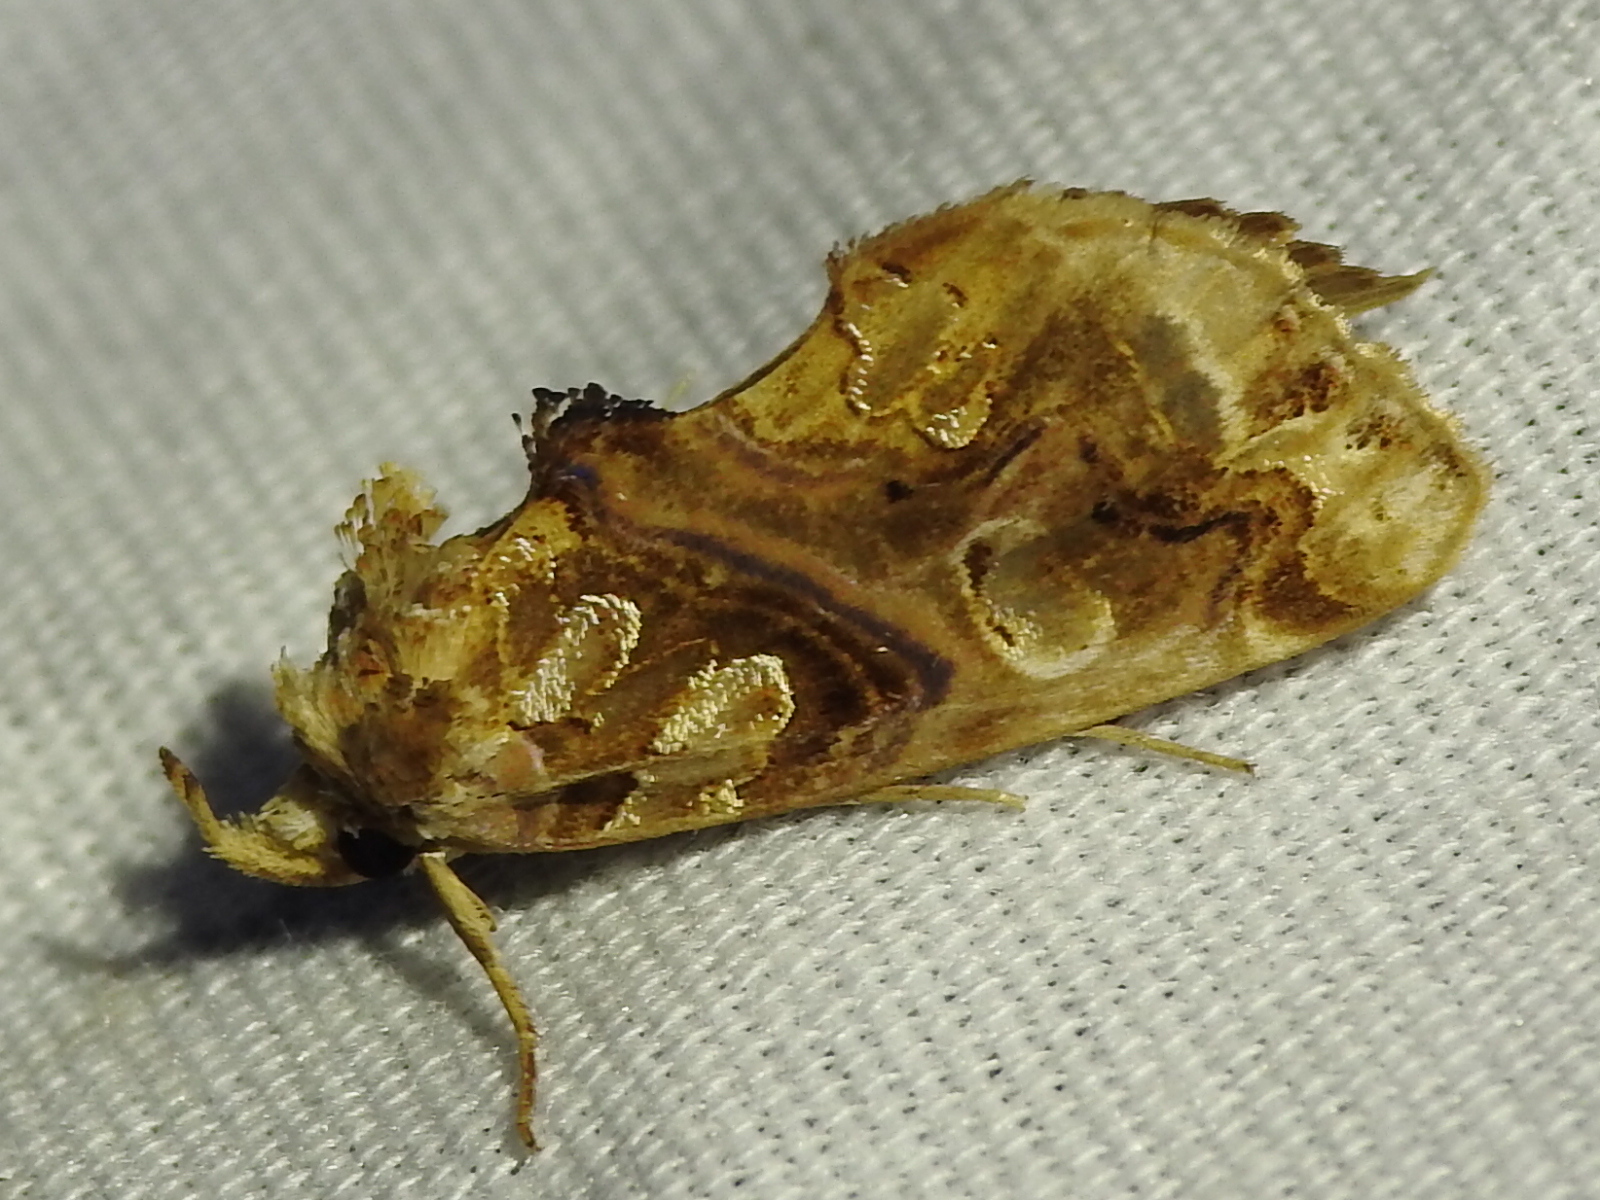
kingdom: Animalia
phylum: Arthropoda
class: Insecta
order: Lepidoptera
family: Erebidae
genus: Plusiodonta
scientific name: Plusiodonta compressipalpis
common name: Moonseed moth
